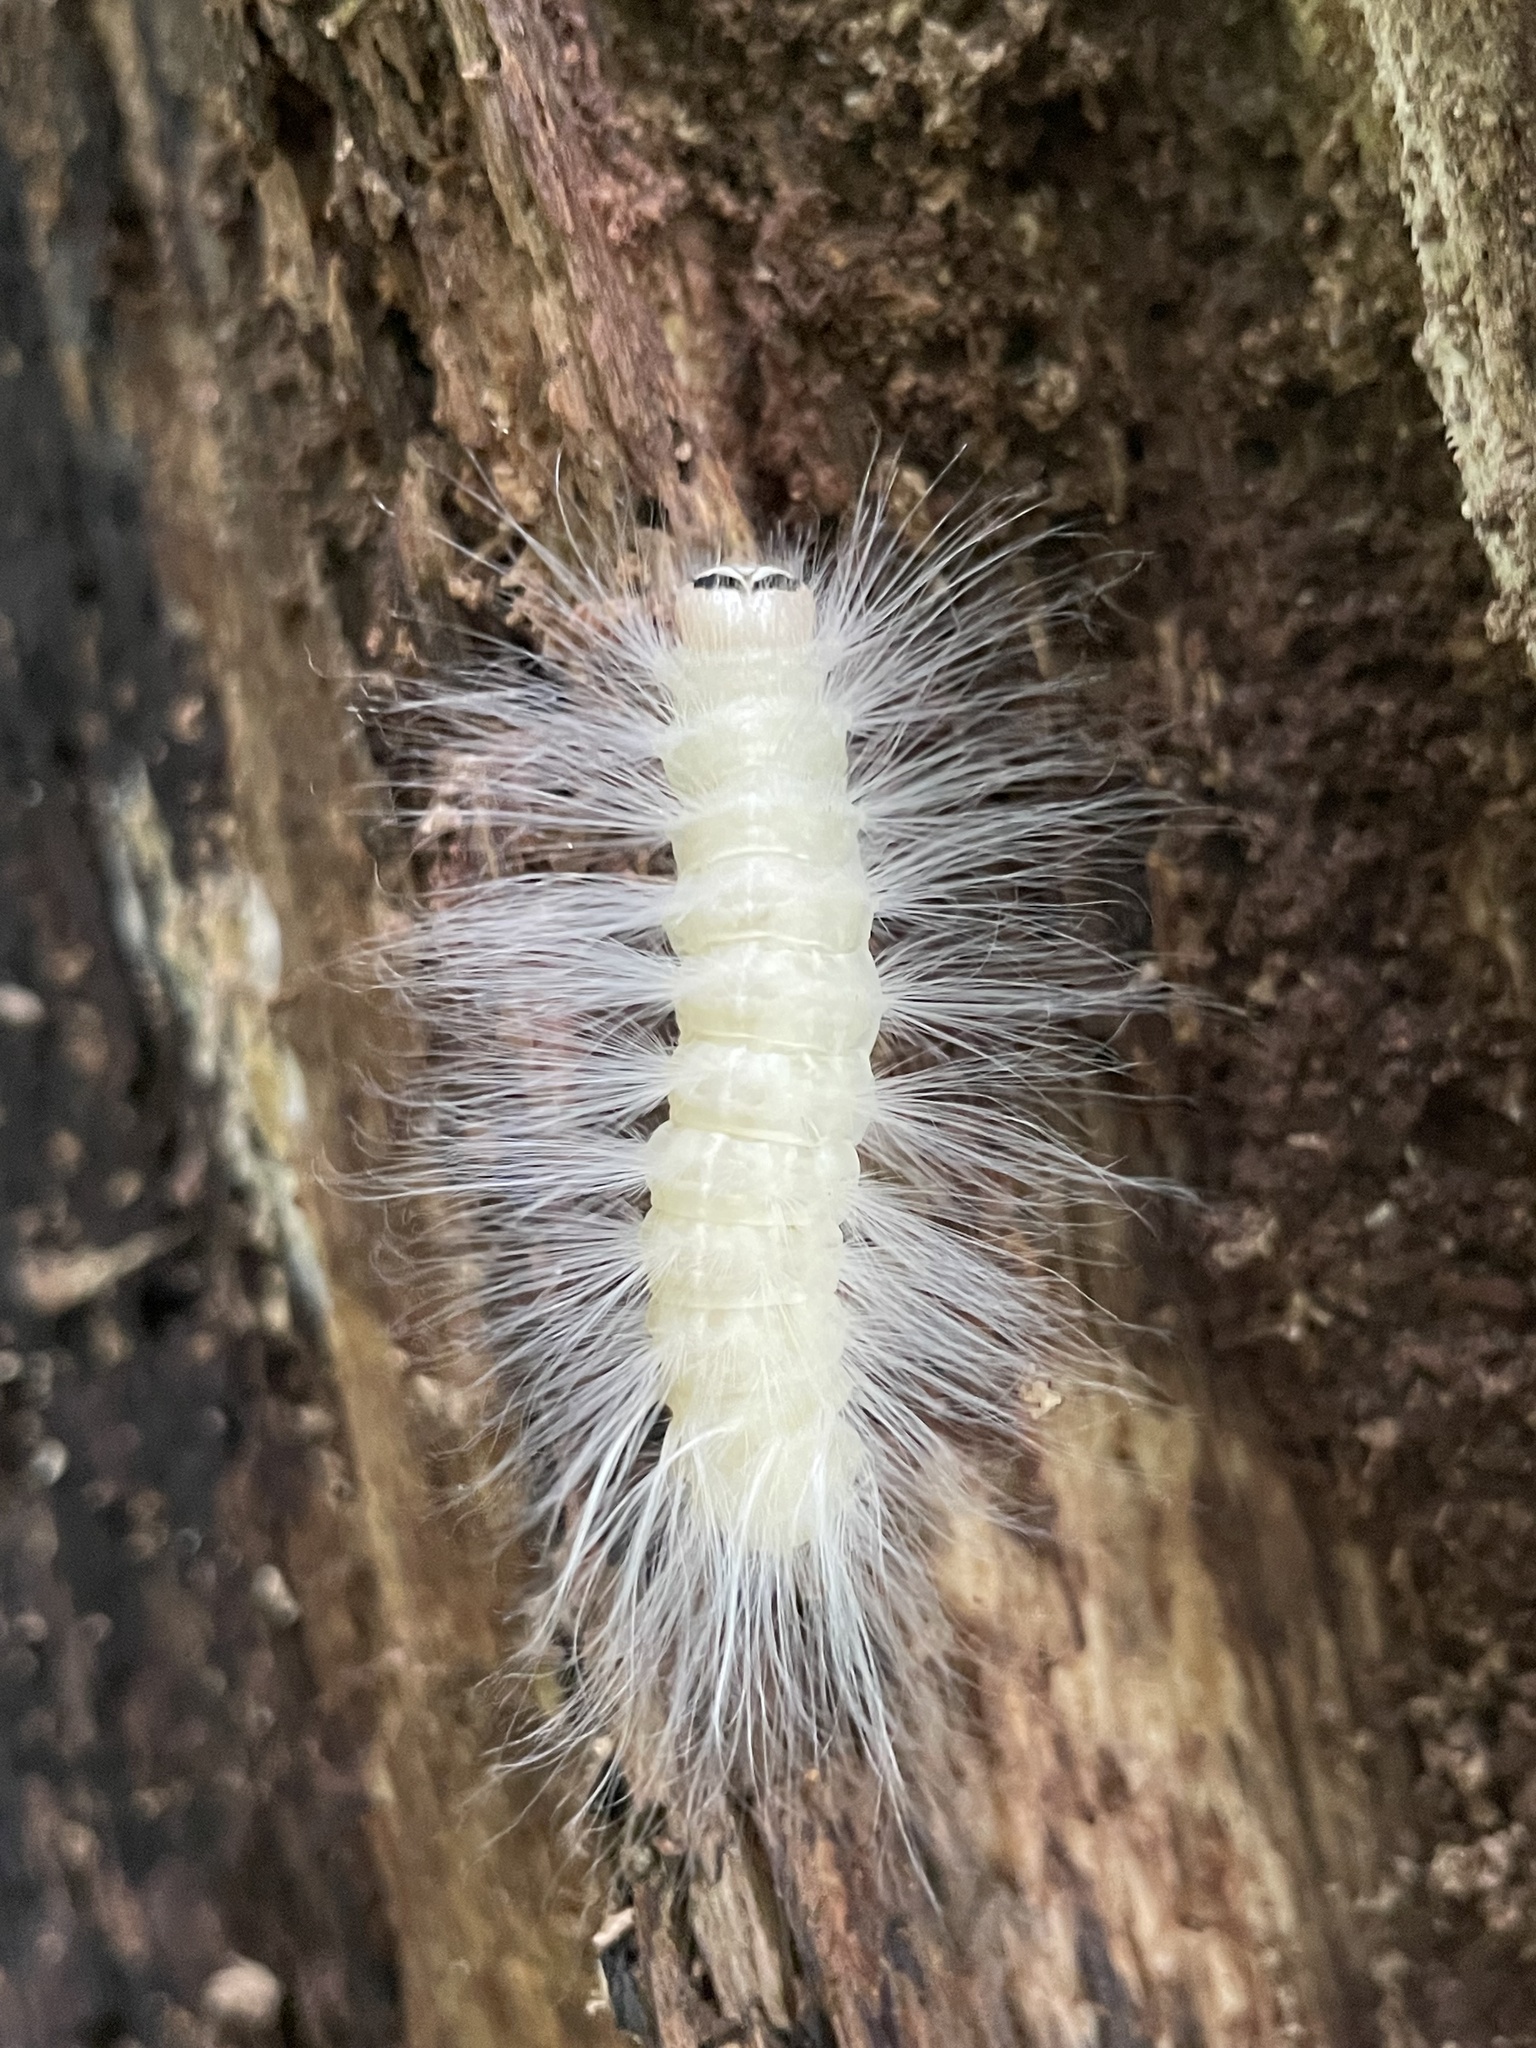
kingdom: Animalia
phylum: Arthropoda
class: Insecta
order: Lepidoptera
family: Noctuidae
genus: Charadra
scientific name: Charadra deridens
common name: Marbled tuffet
